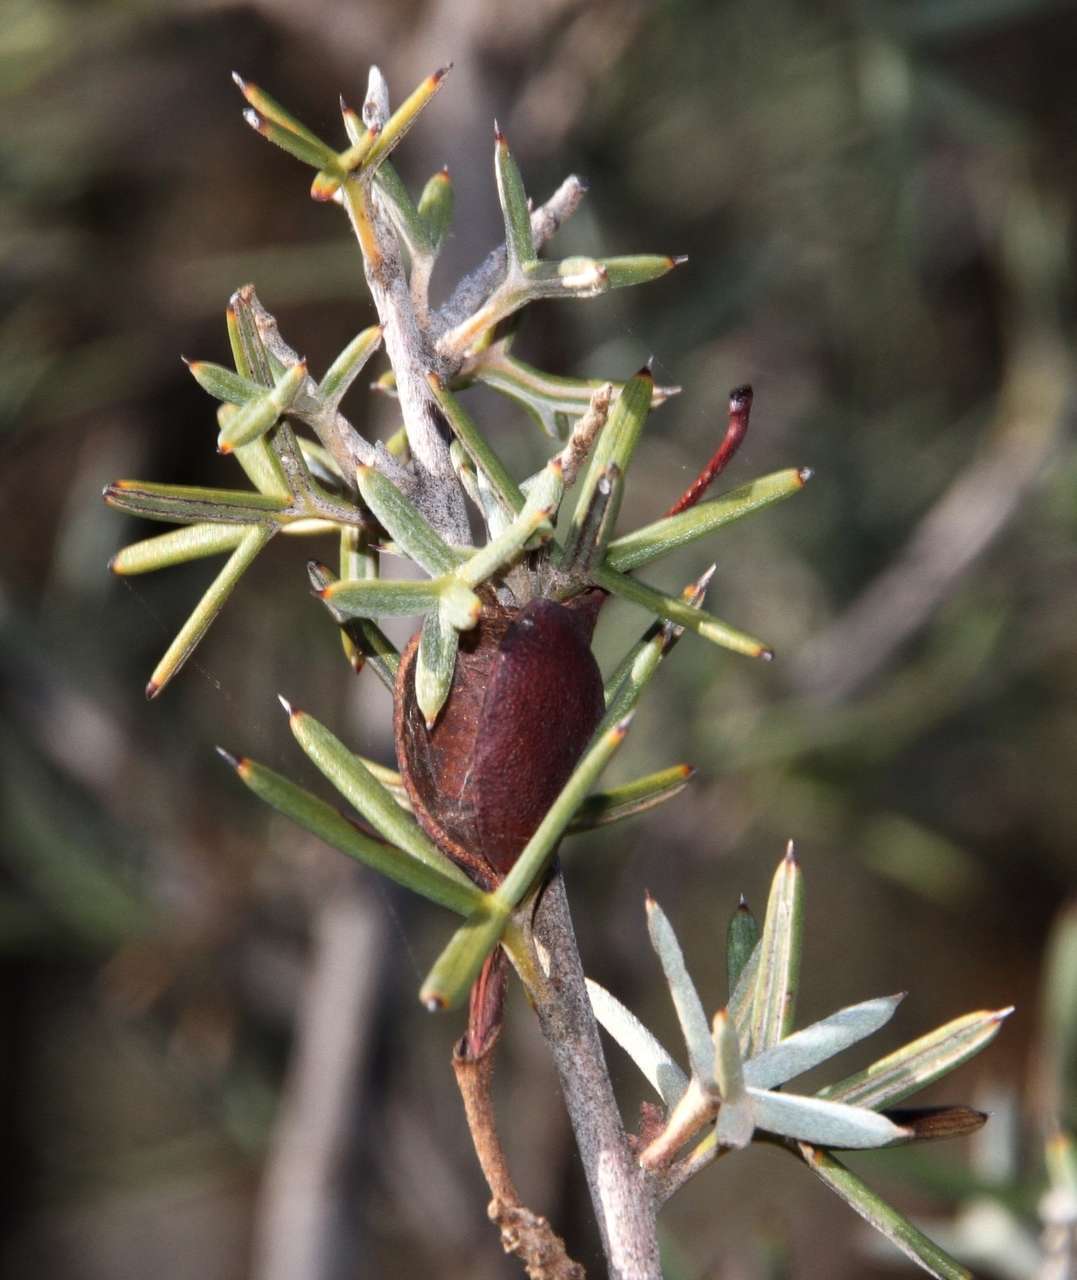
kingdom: Plantae
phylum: Tracheophyta
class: Magnoliopsida
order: Proteales
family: Proteaceae
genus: Grevillea
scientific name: Grevillea huegelii
